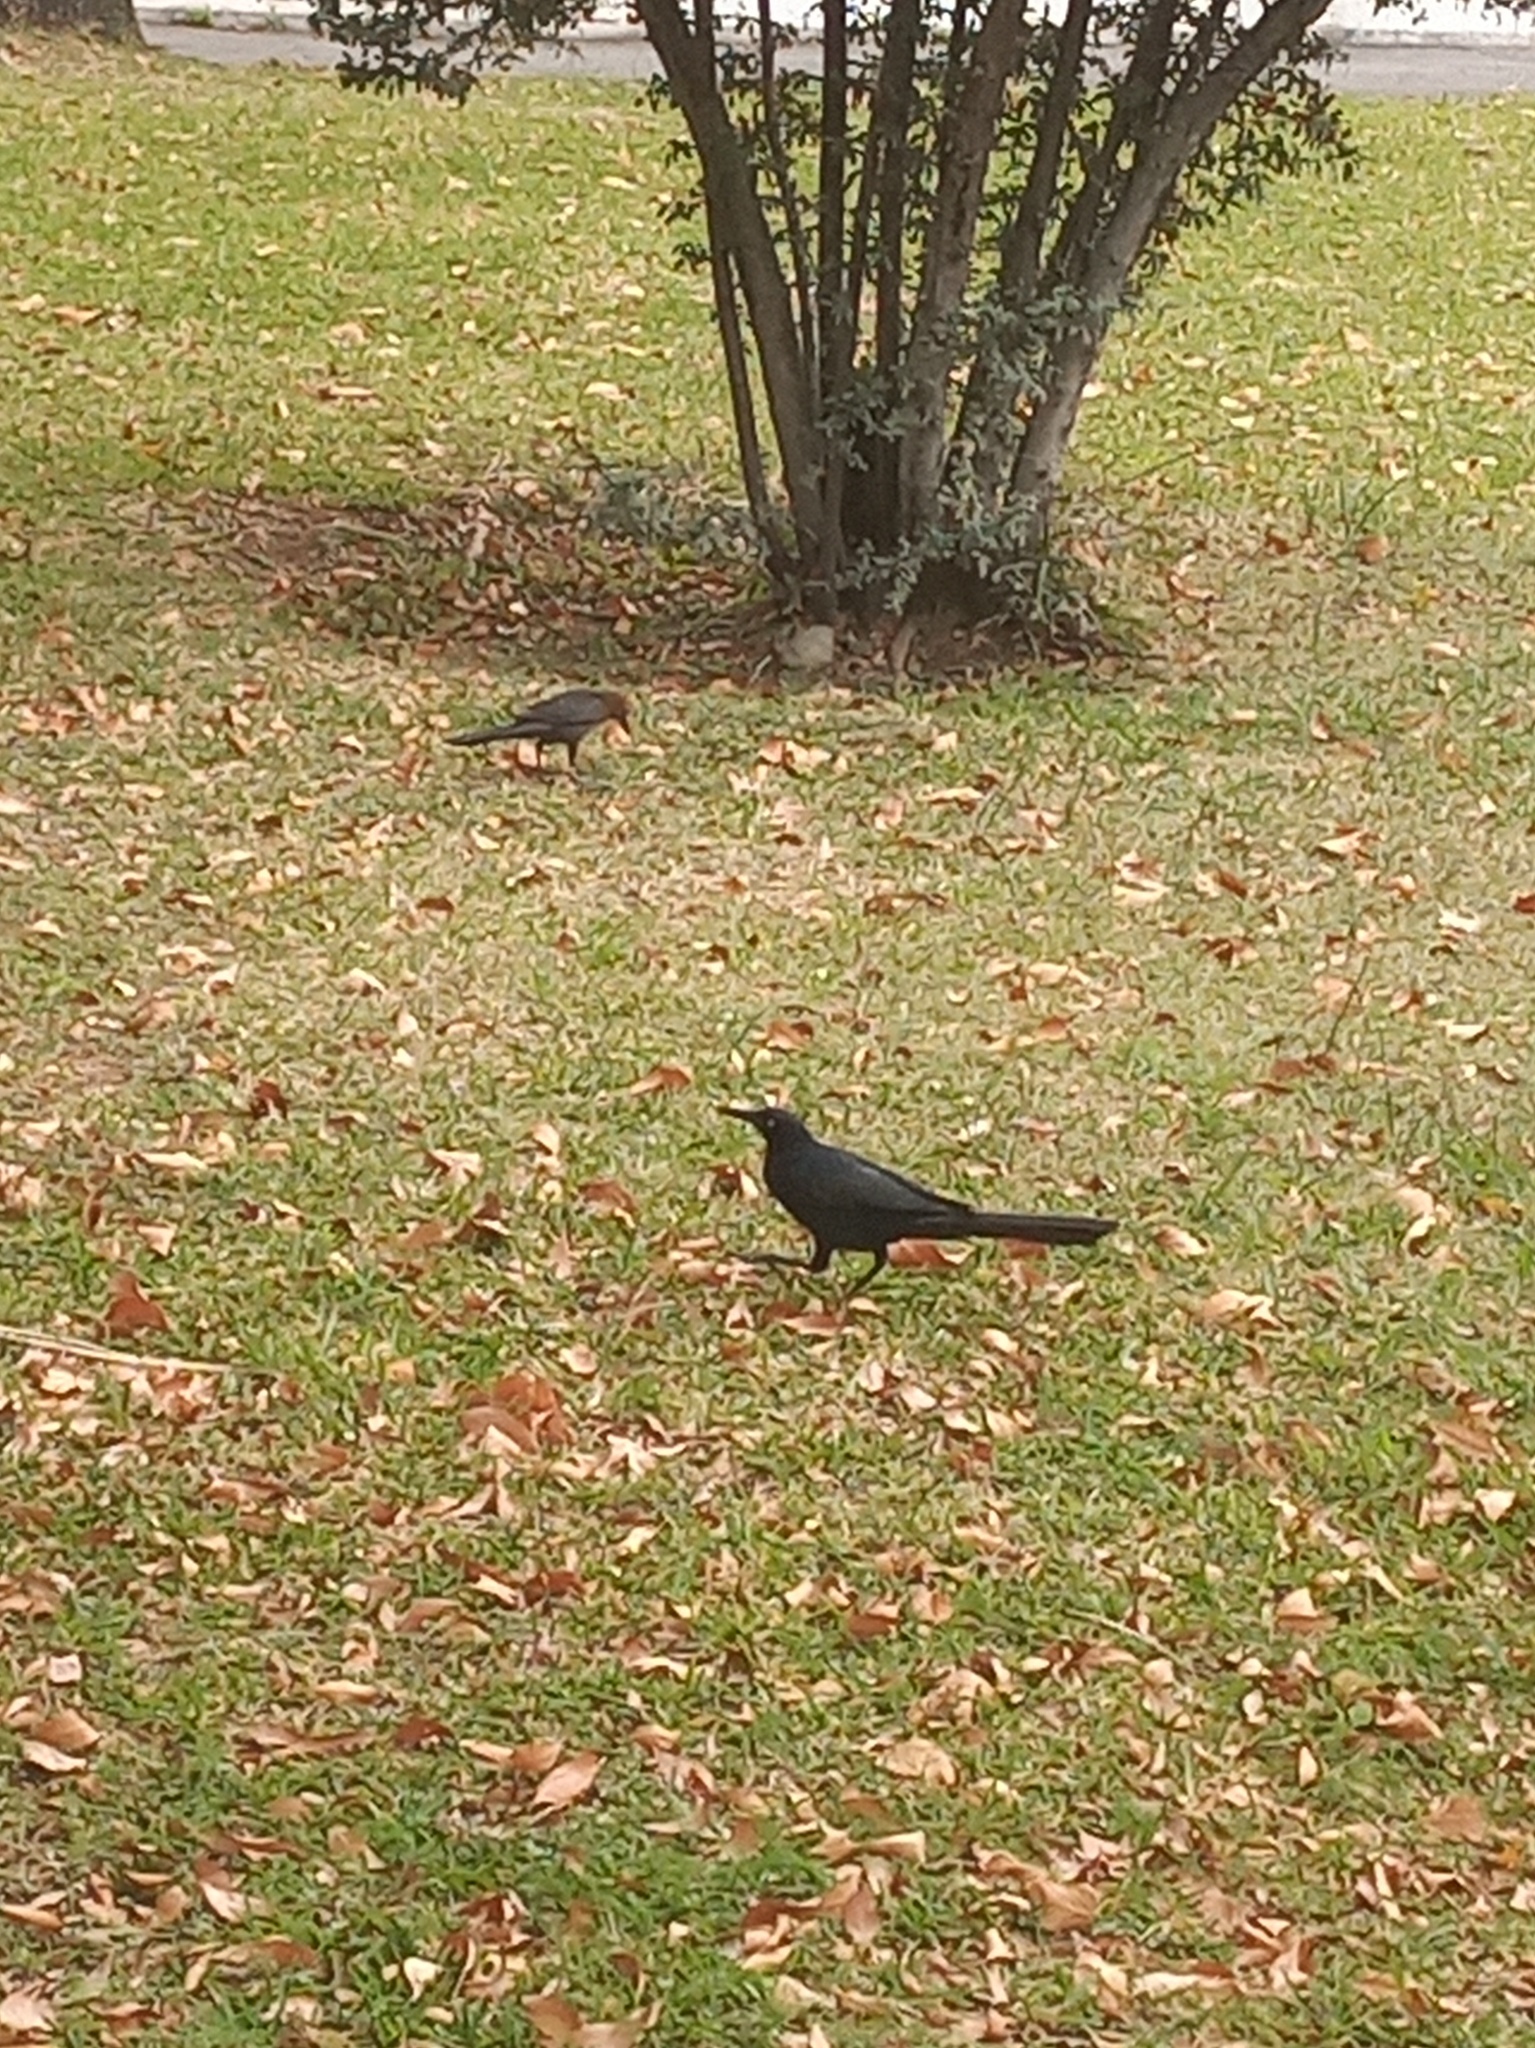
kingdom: Animalia
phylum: Chordata
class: Aves
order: Passeriformes
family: Icteridae
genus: Quiscalus
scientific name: Quiscalus mexicanus
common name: Great-tailed grackle
